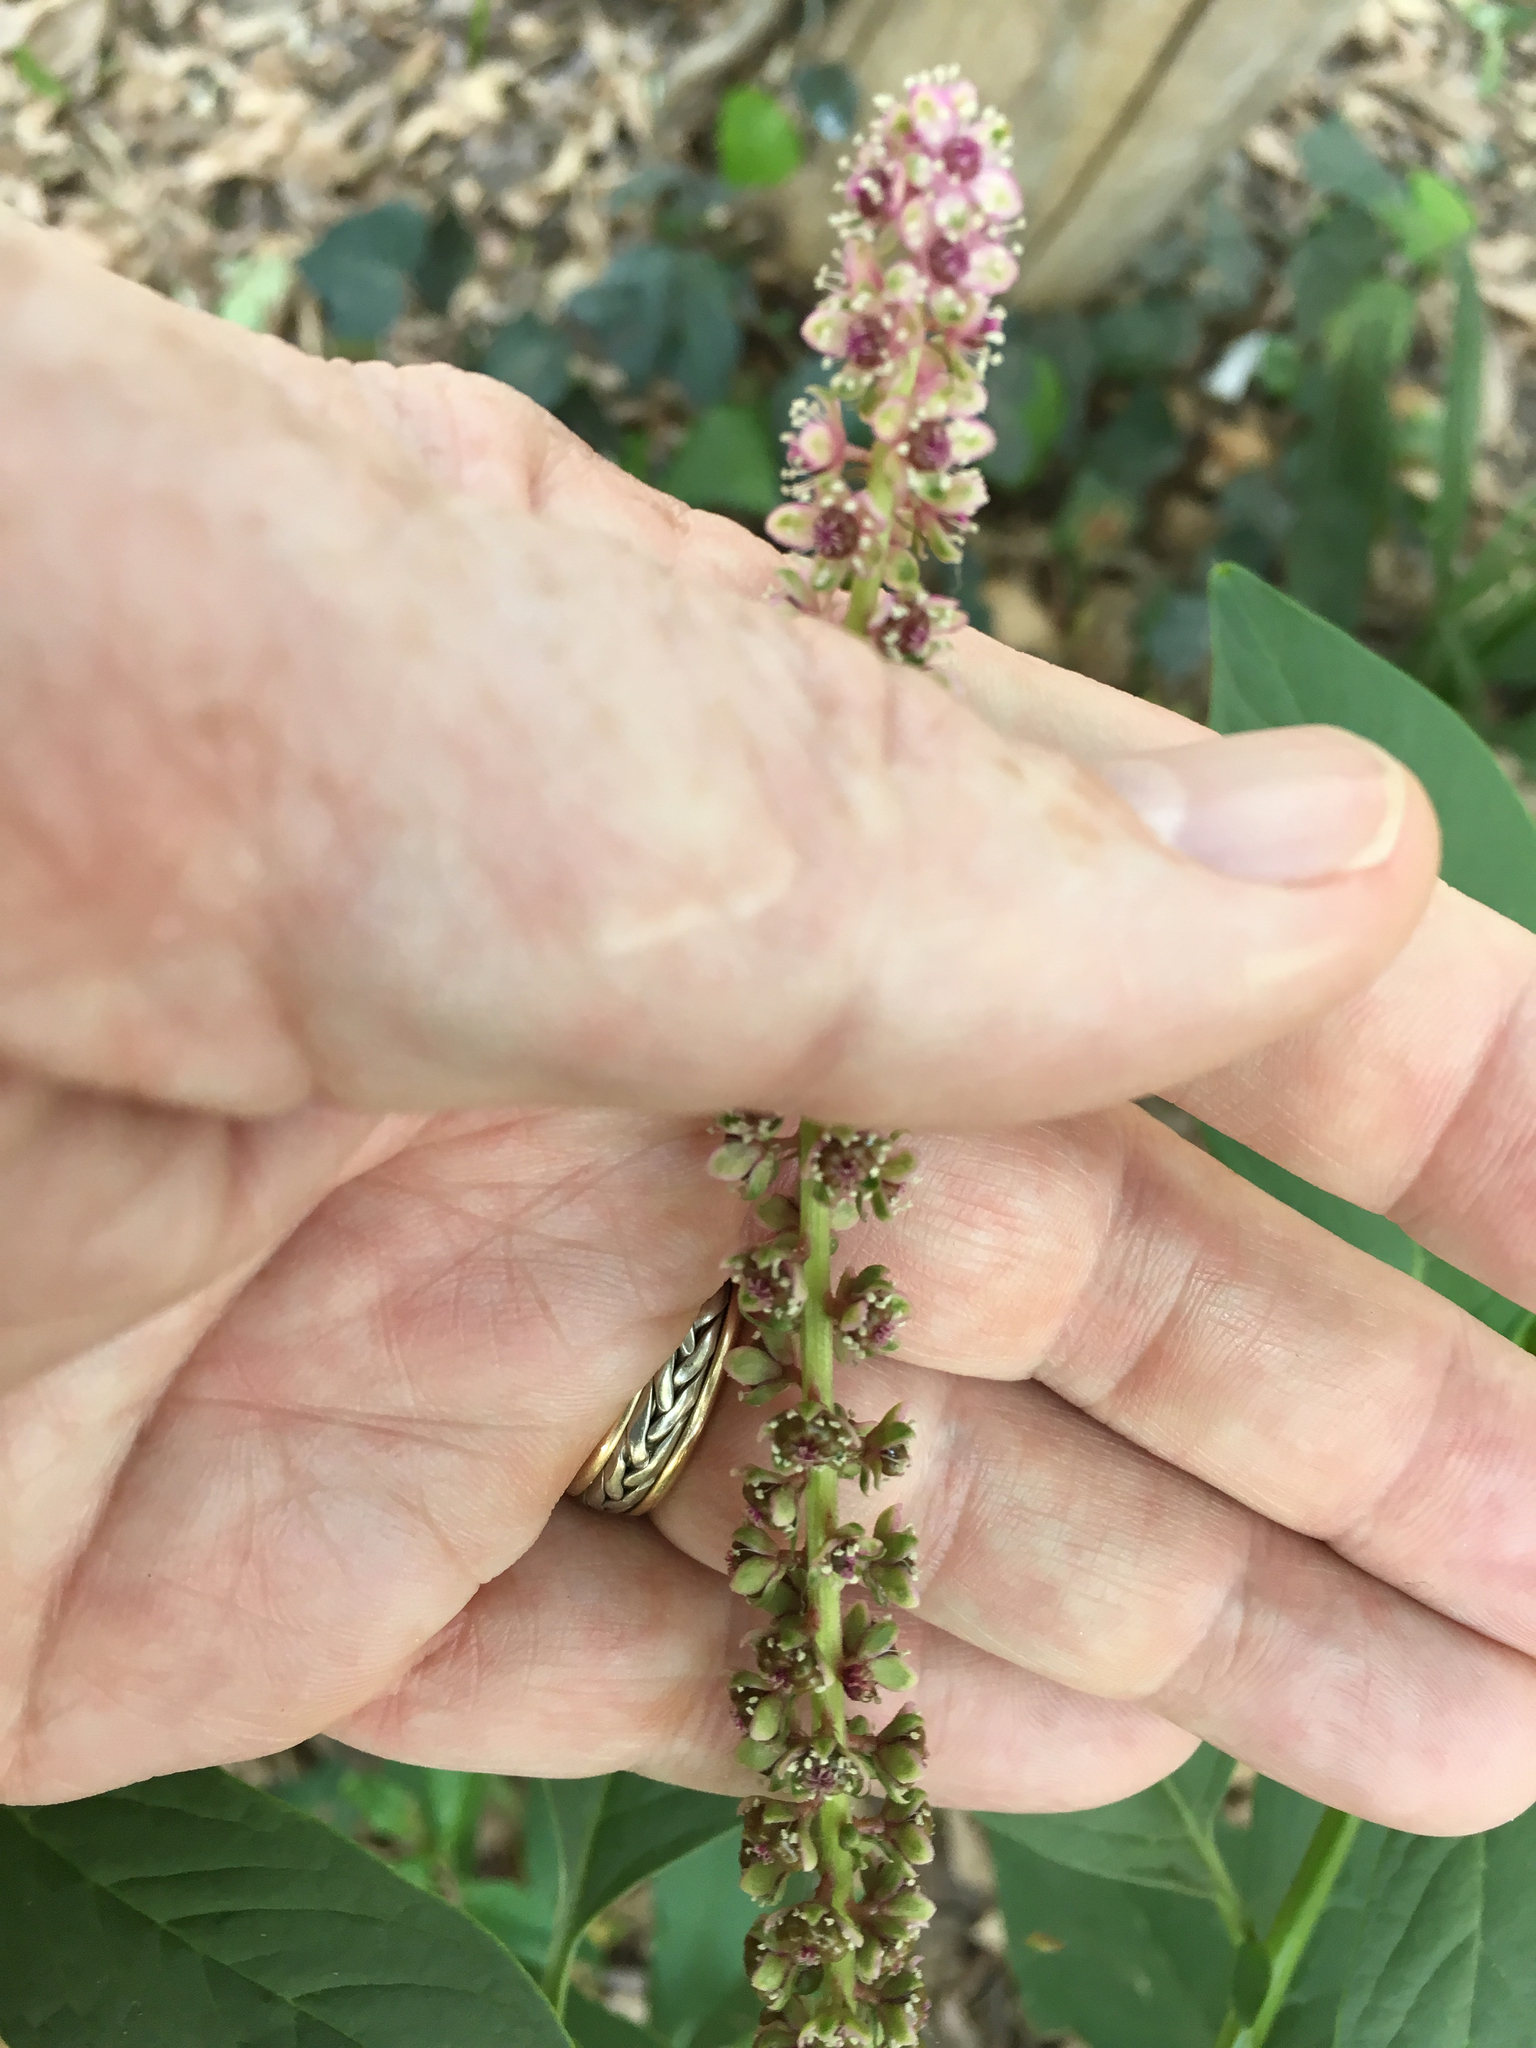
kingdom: Plantae
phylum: Tracheophyta
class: Magnoliopsida
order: Caryophyllales
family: Phytolaccaceae
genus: Phytolacca
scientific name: Phytolacca icosandra
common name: Button pokeweed
